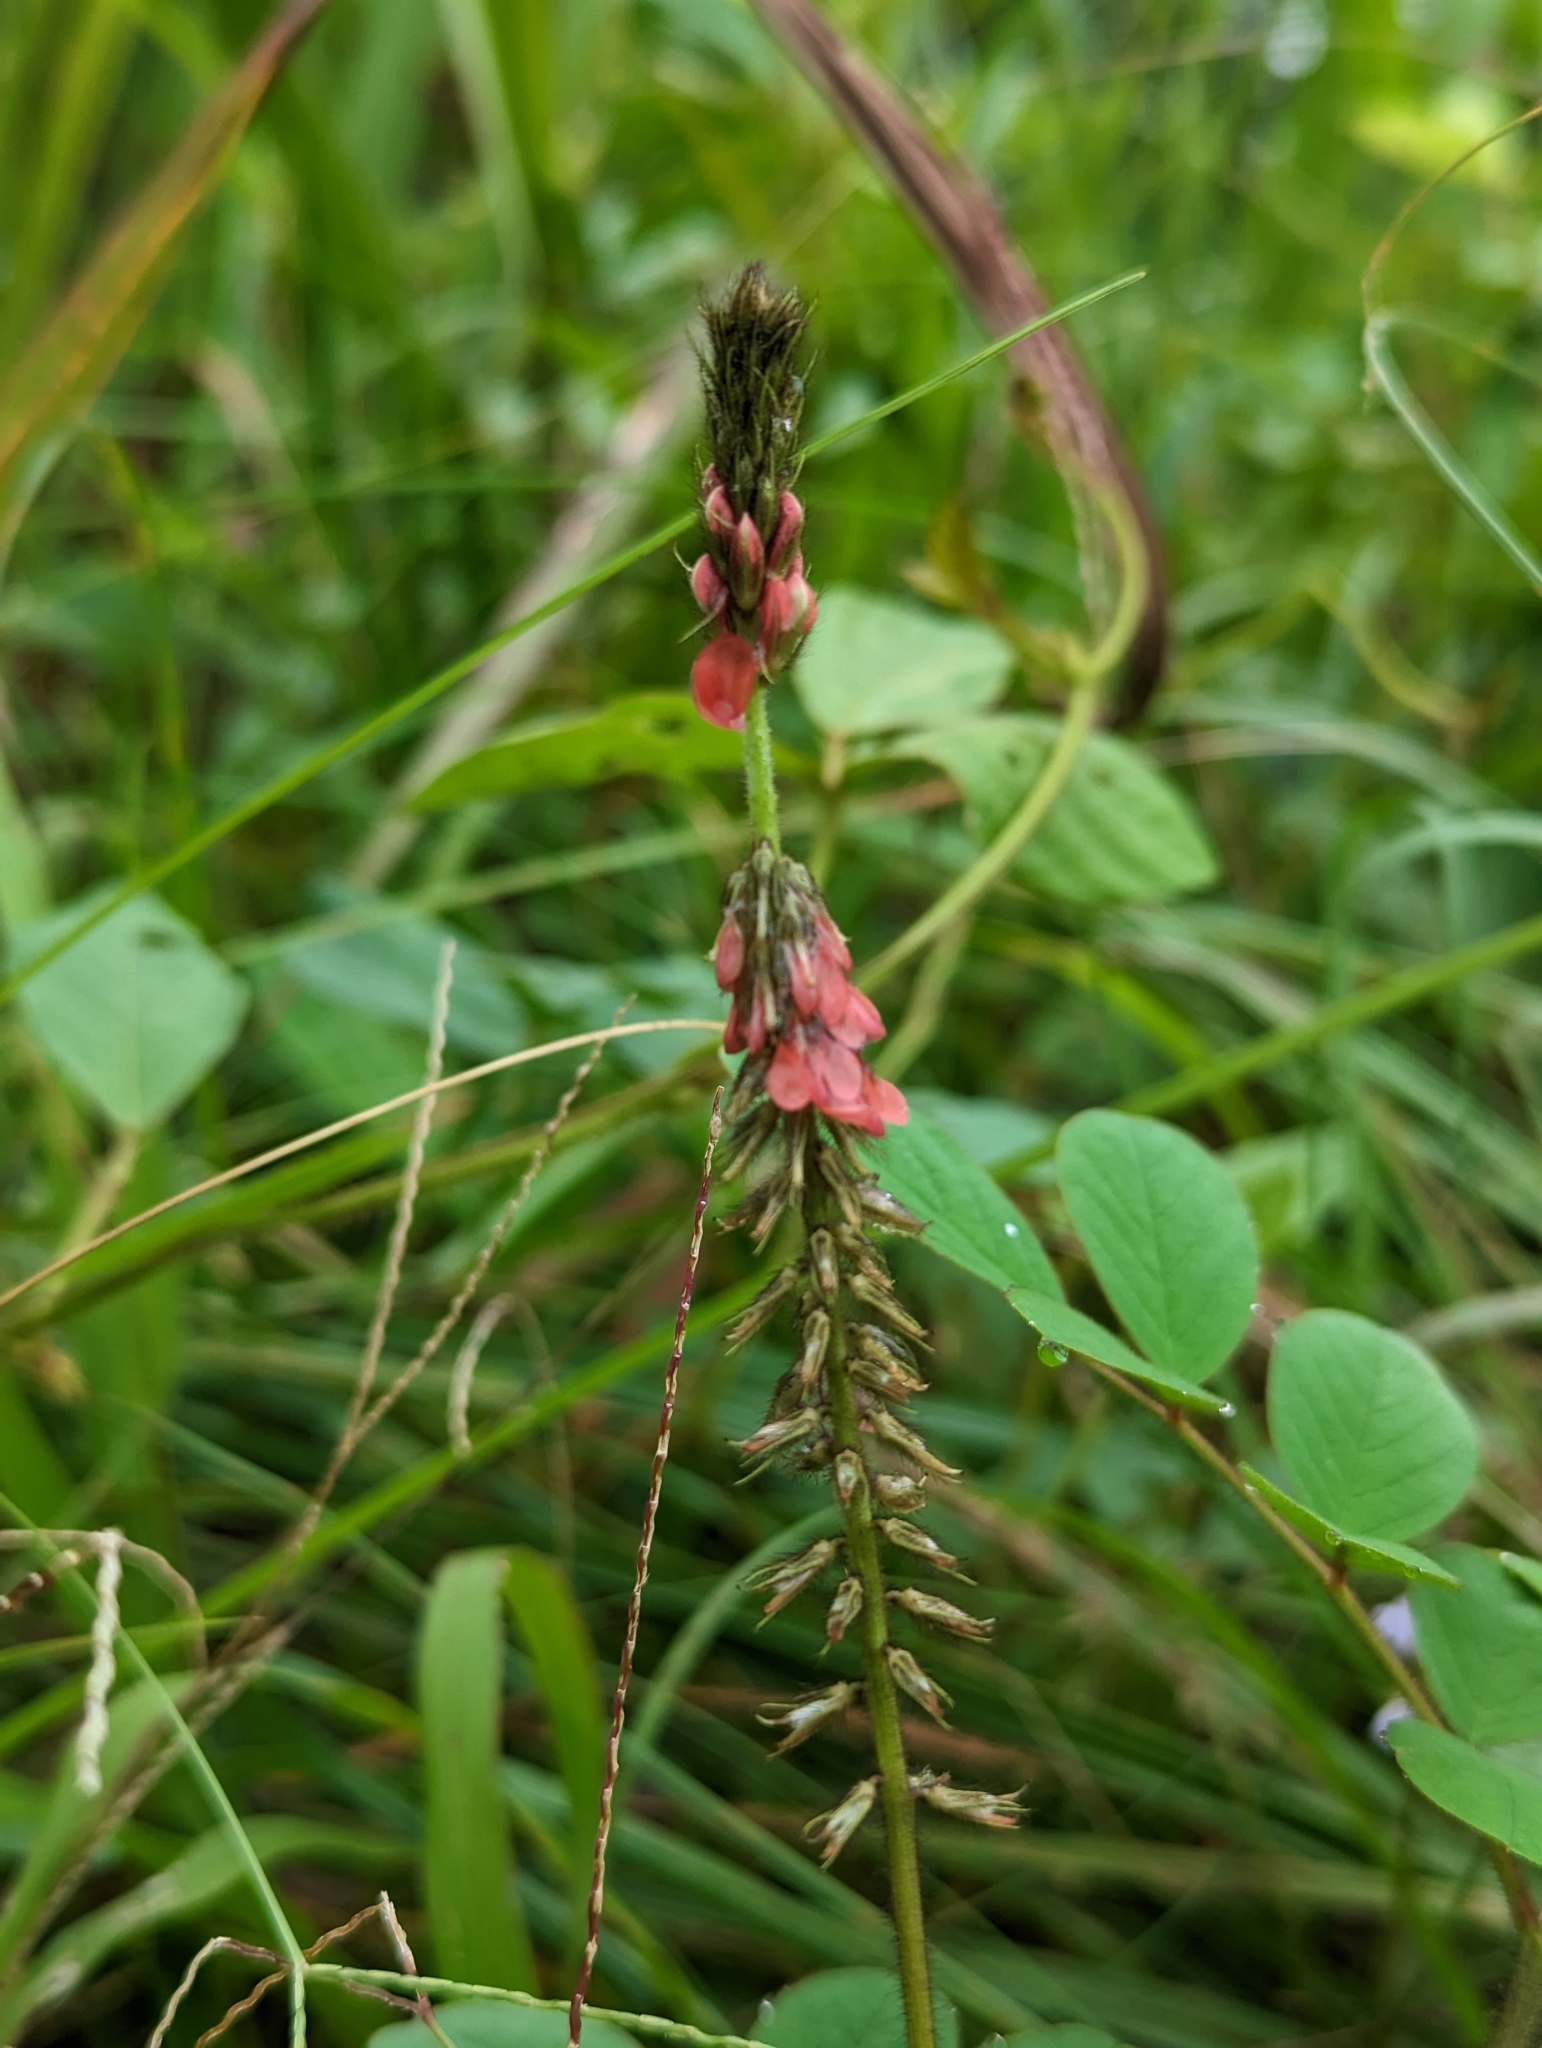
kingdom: Plantae
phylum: Tracheophyta
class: Magnoliopsida
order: Fabales
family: Fabaceae
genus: Indigofera
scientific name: Indigofera hirsuta
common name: Hairy indigo
